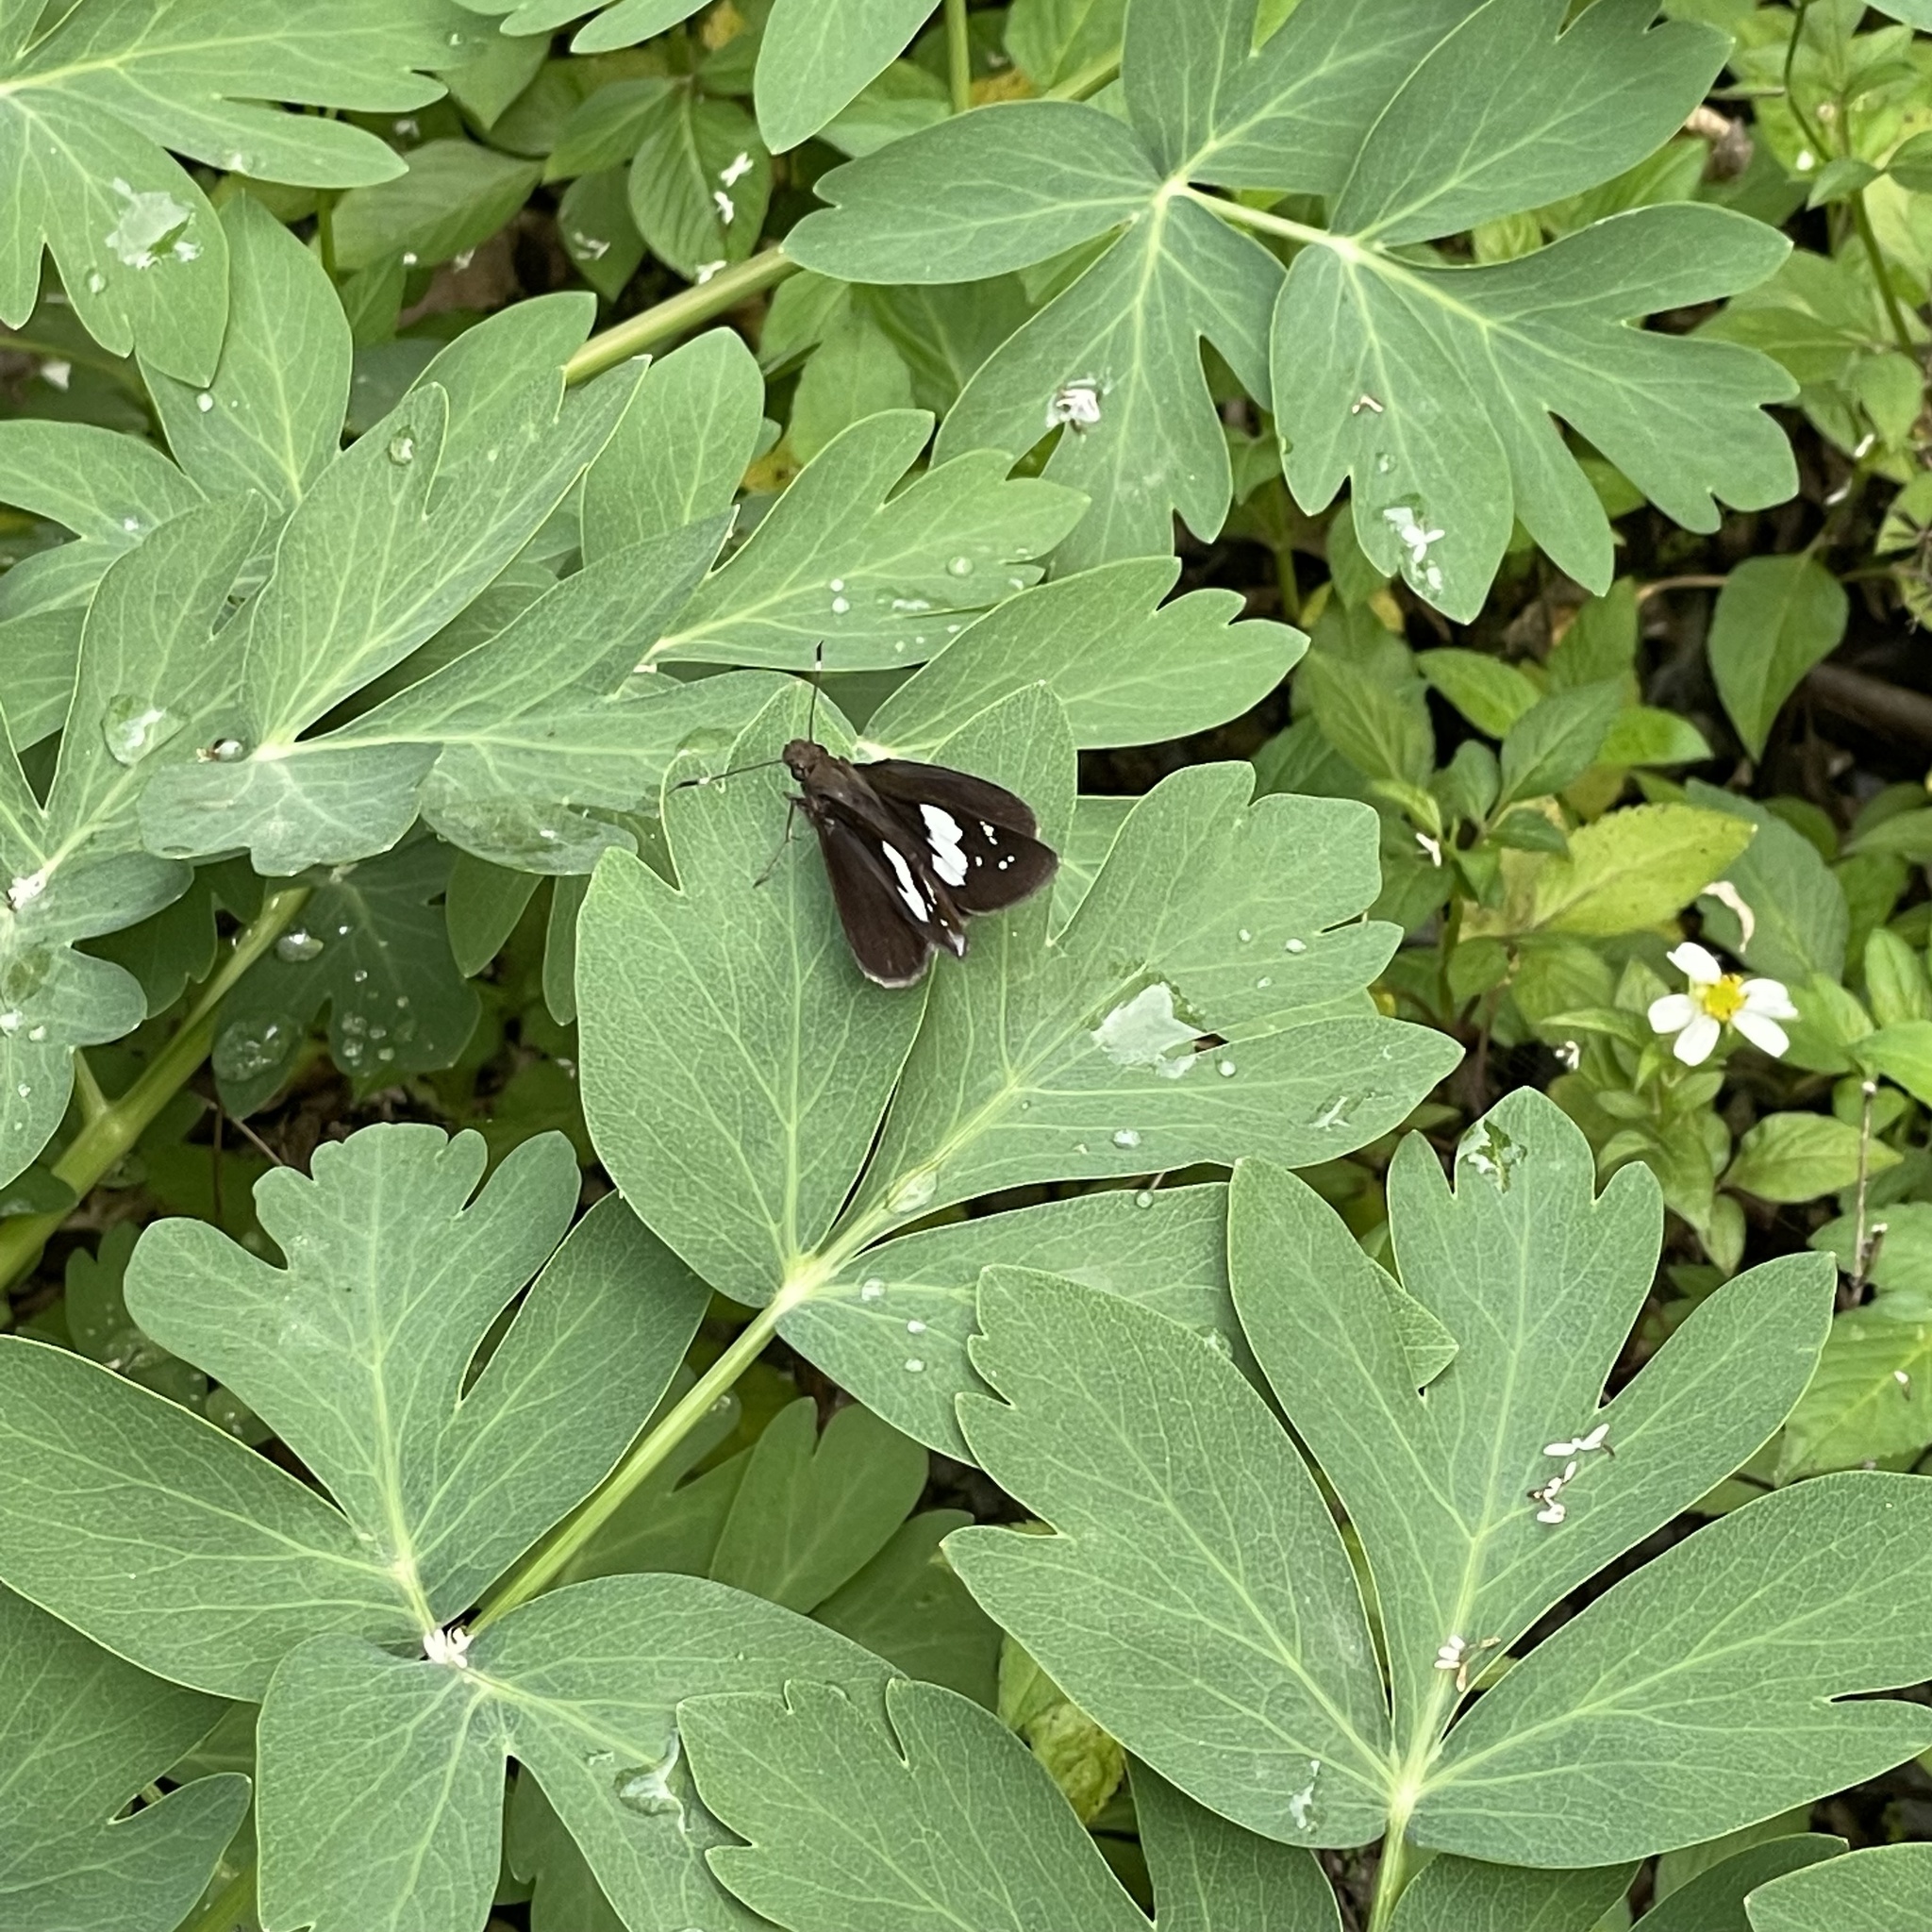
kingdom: Animalia
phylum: Arthropoda
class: Insecta
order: Lepidoptera
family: Hesperiidae
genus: Notocrypta
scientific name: Notocrypta curvifascia
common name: Restricted demon
